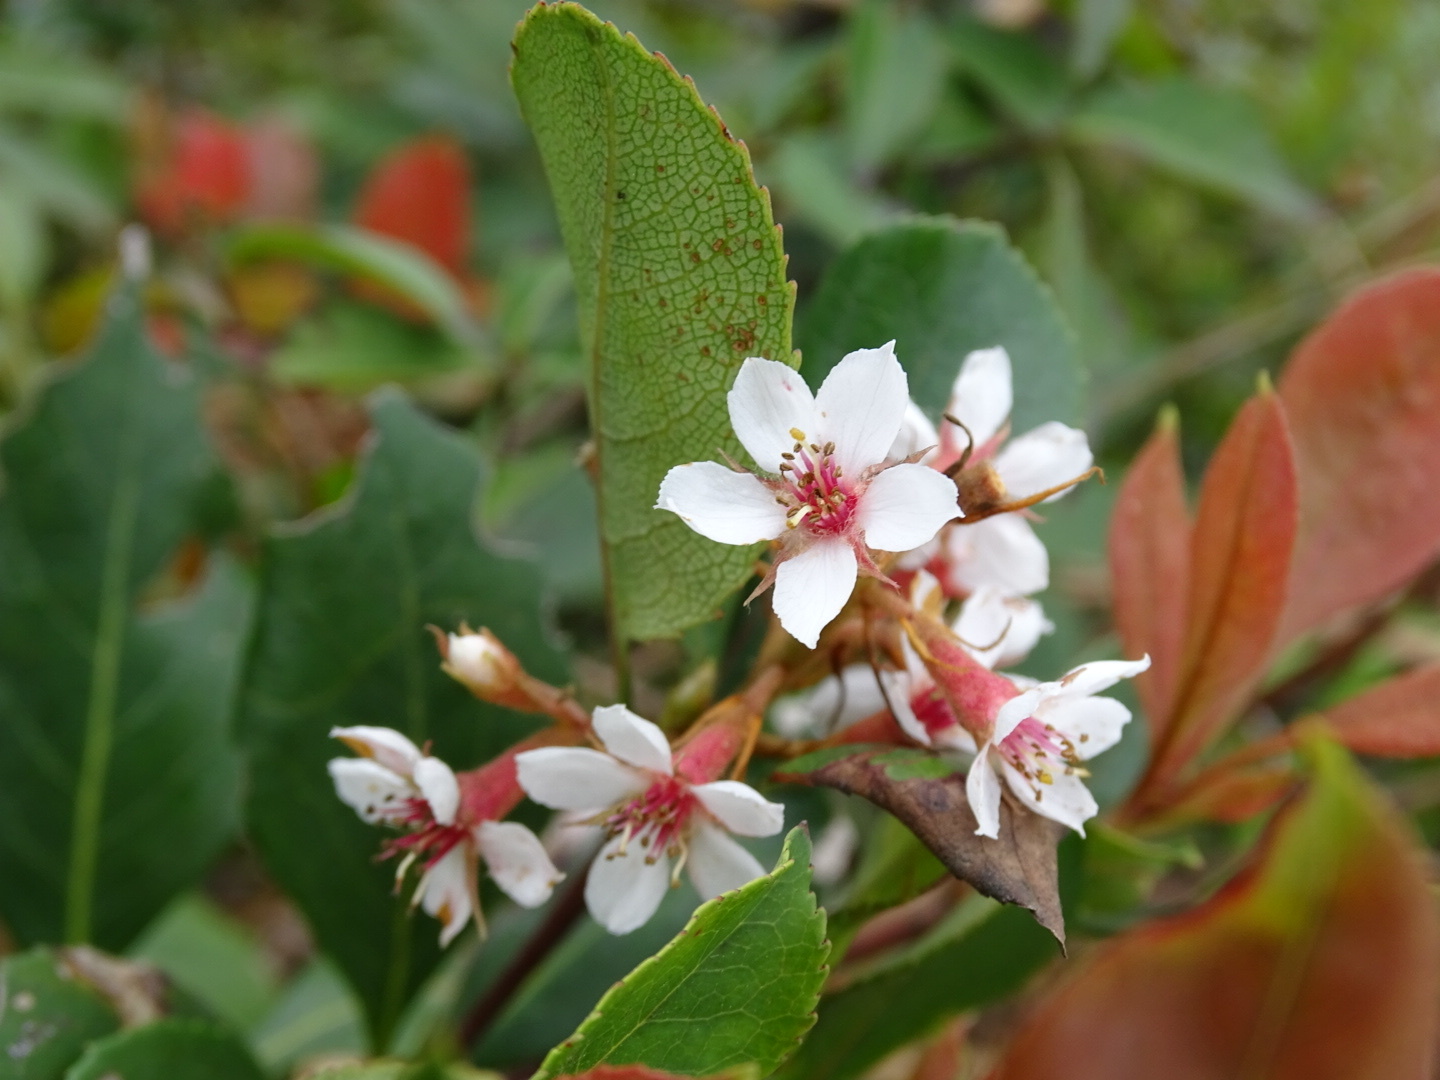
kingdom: Plantae
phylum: Tracheophyta
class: Magnoliopsida
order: Rosales
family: Rosaceae
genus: Rhaphiolepis
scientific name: Rhaphiolepis indica
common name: India-hawthorn
